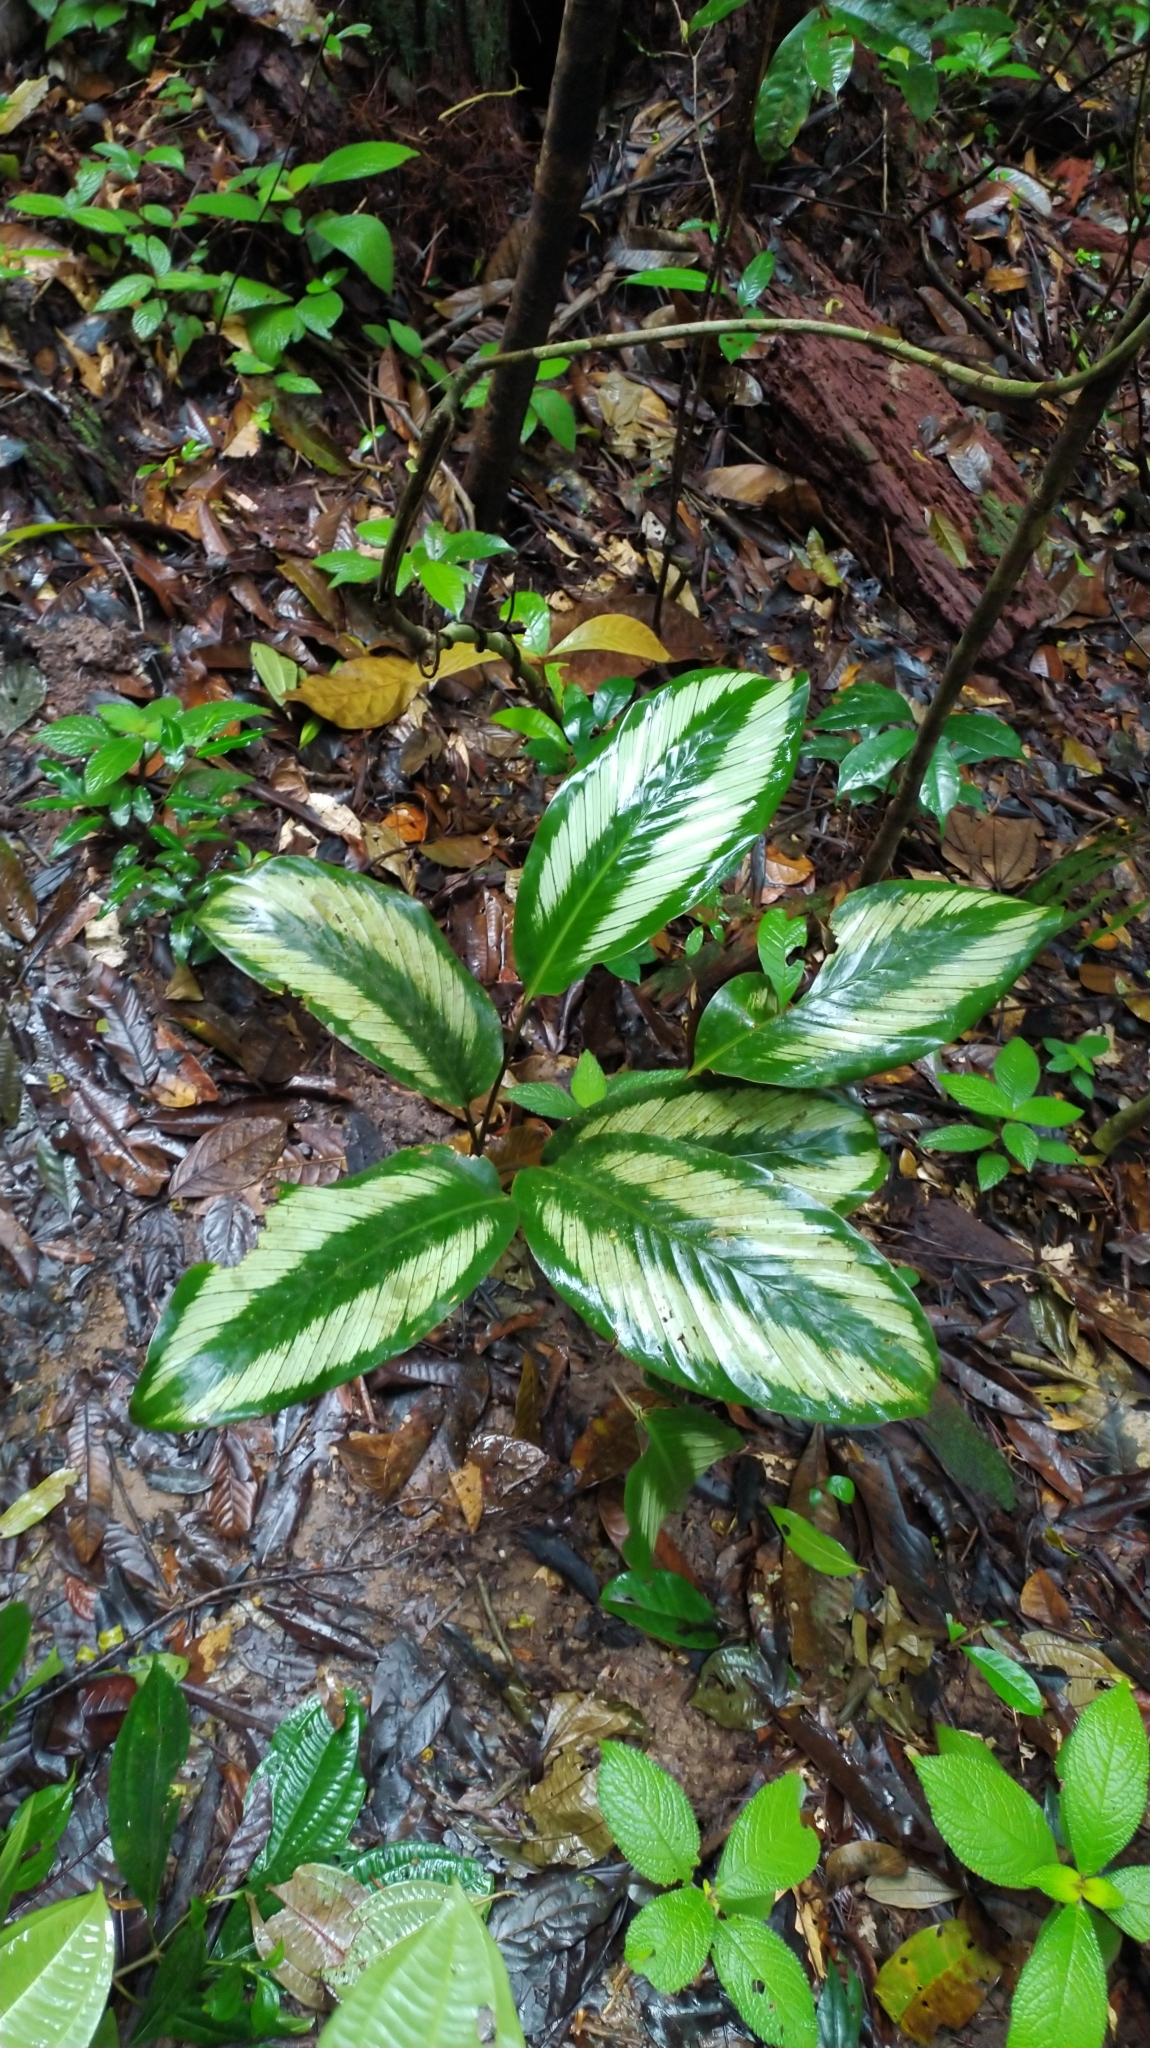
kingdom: Plantae
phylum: Tracheophyta
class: Liliopsida
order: Zingiberales
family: Marantaceae
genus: Goeppertia
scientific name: Goeppertia elliptica
